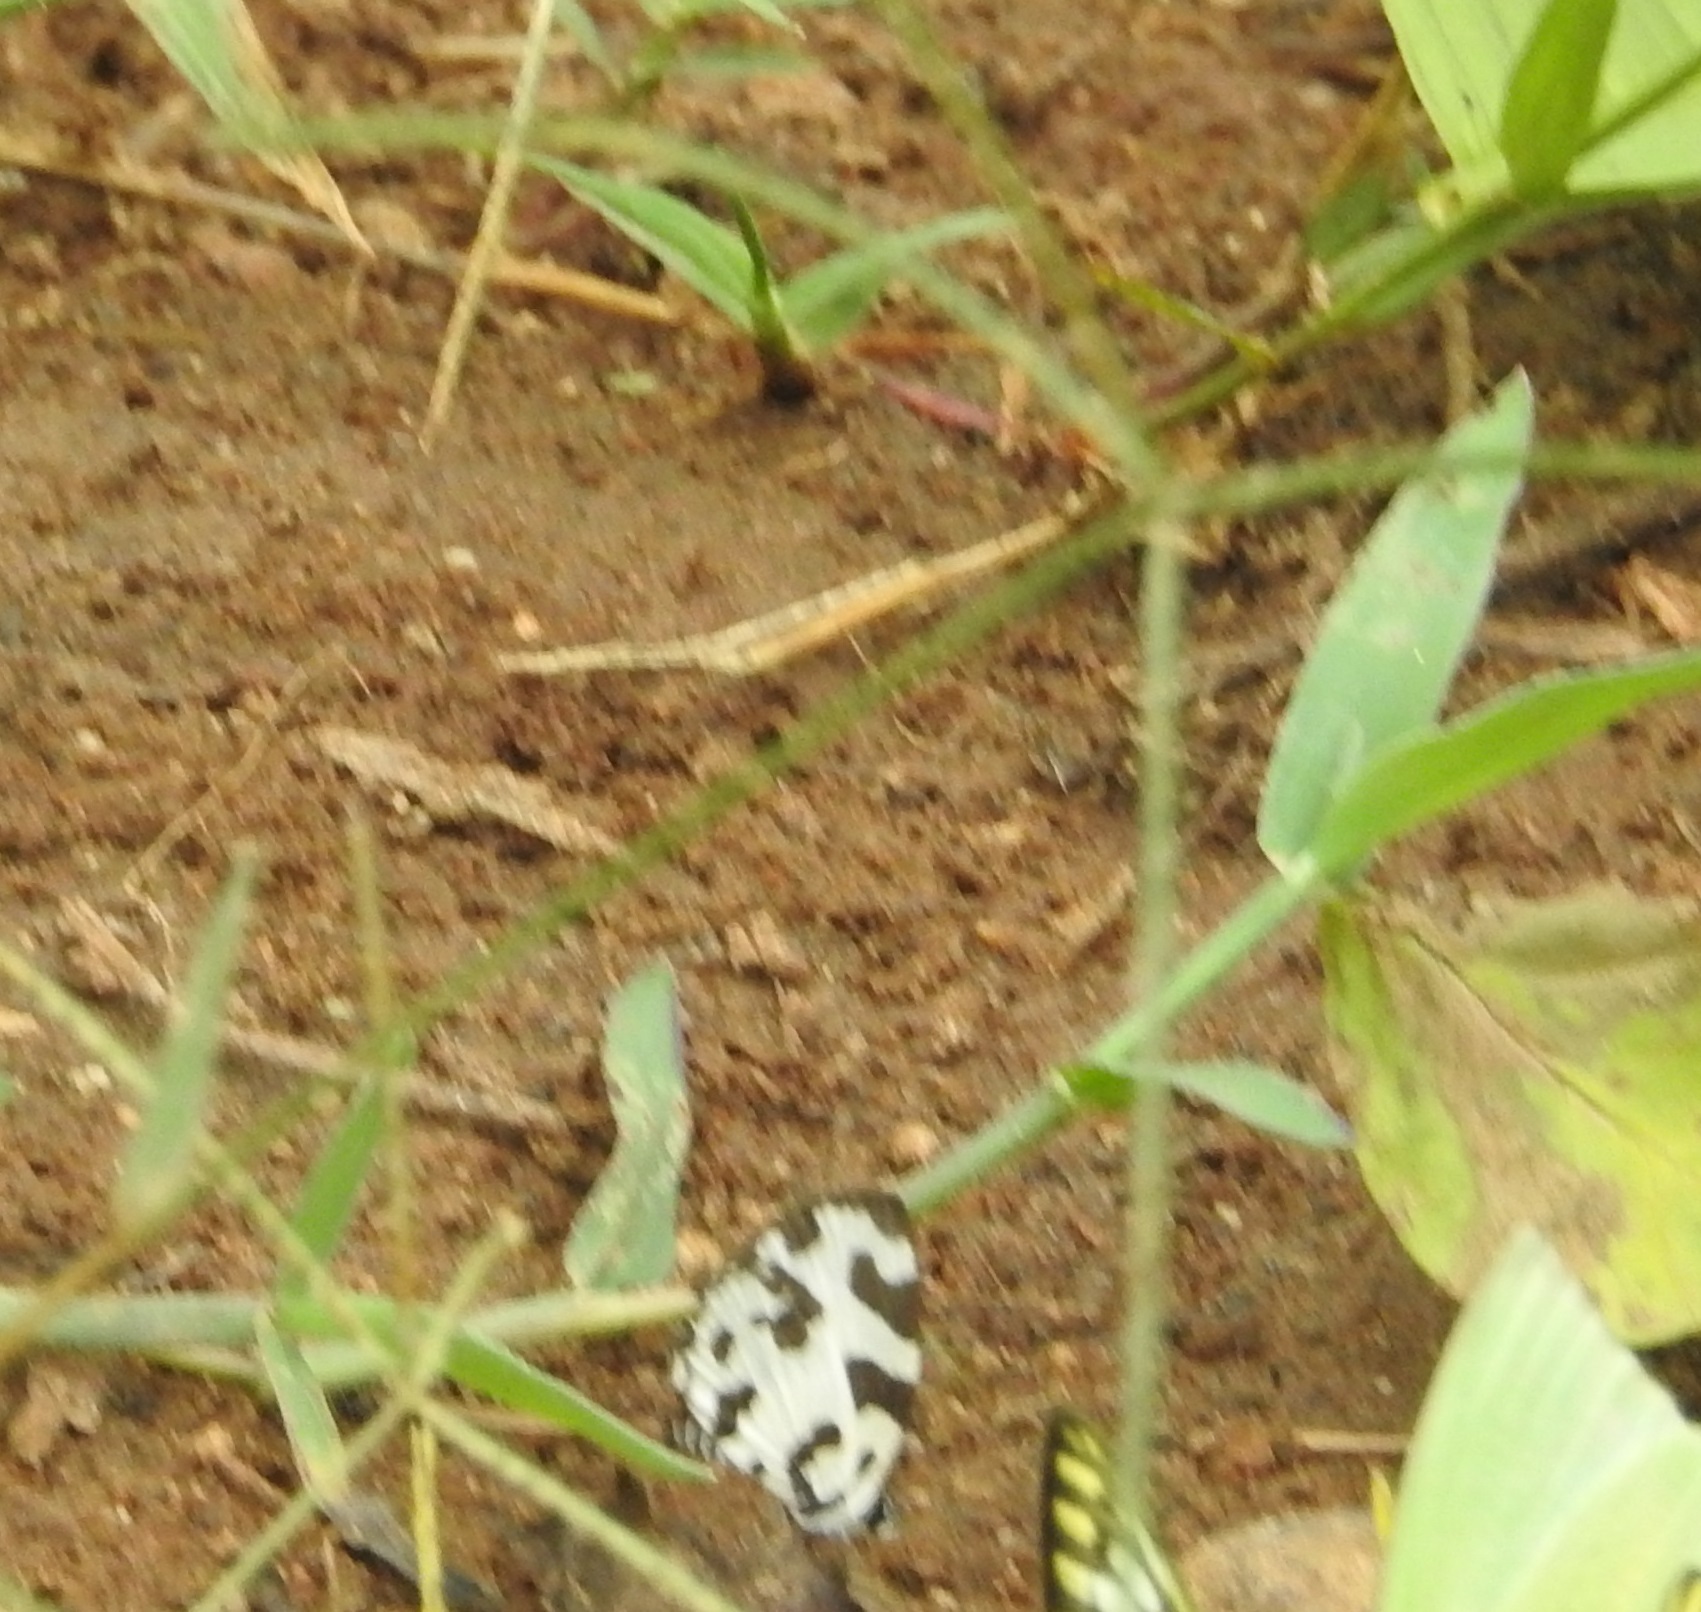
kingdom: Animalia
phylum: Arthropoda
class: Insecta
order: Lepidoptera
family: Lycaenidae
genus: Caleta
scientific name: Caleta decidia
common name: Angled pierrot
